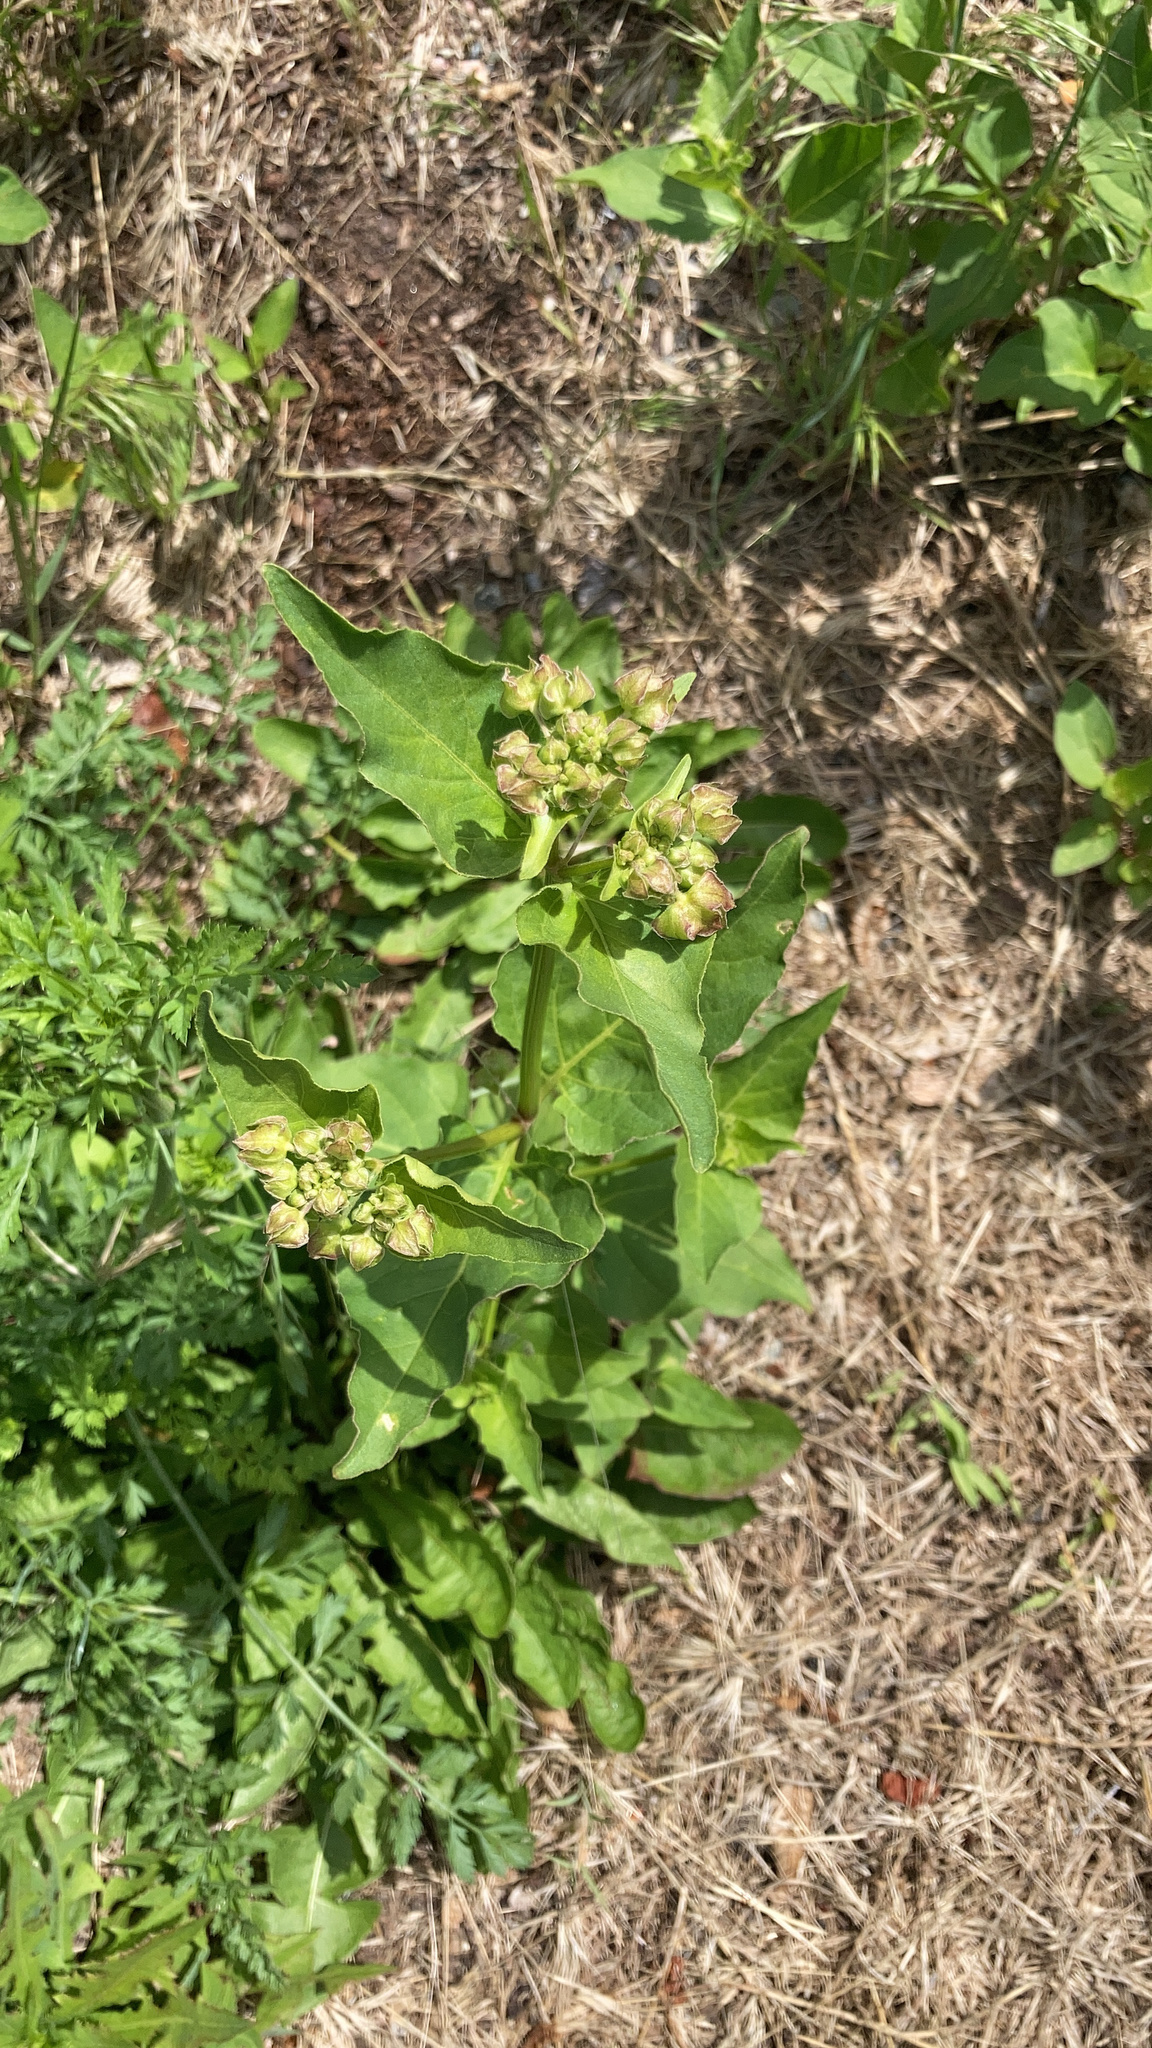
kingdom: Plantae
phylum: Tracheophyta
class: Magnoliopsida
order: Caryophyllales
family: Nyctaginaceae
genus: Mirabilis
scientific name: Mirabilis nyctaginea
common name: Umbrella wort
